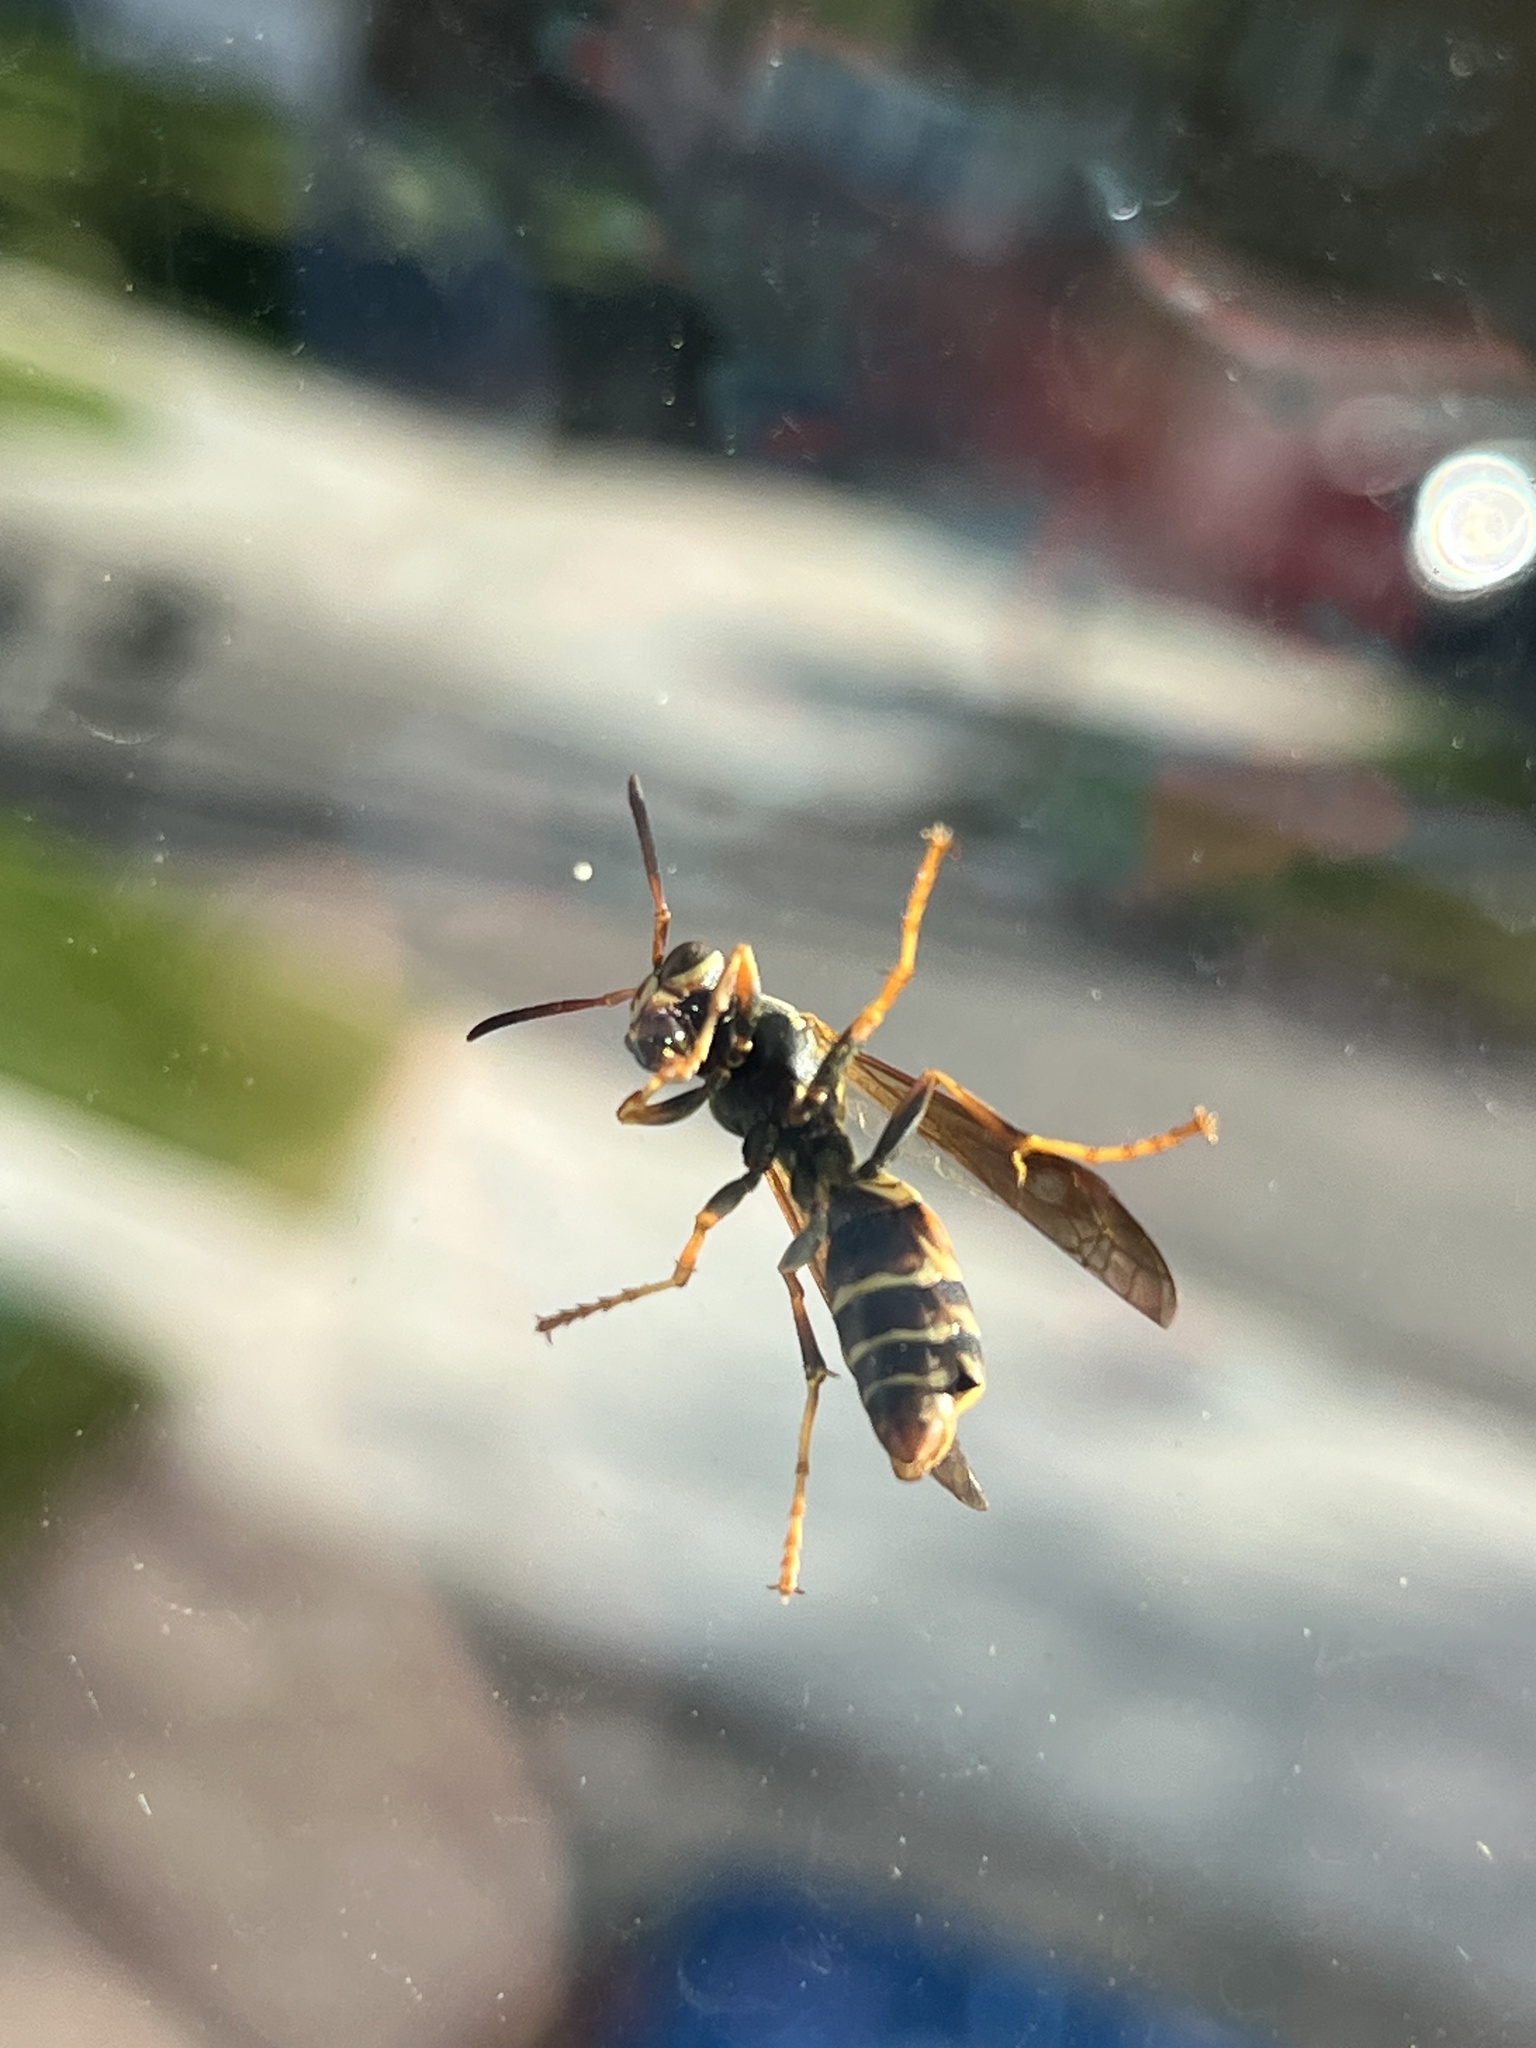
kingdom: Animalia
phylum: Arthropoda
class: Insecta
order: Hymenoptera
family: Eumenidae
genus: Polistes
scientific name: Polistes fuscatus
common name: Dark paper wasp
